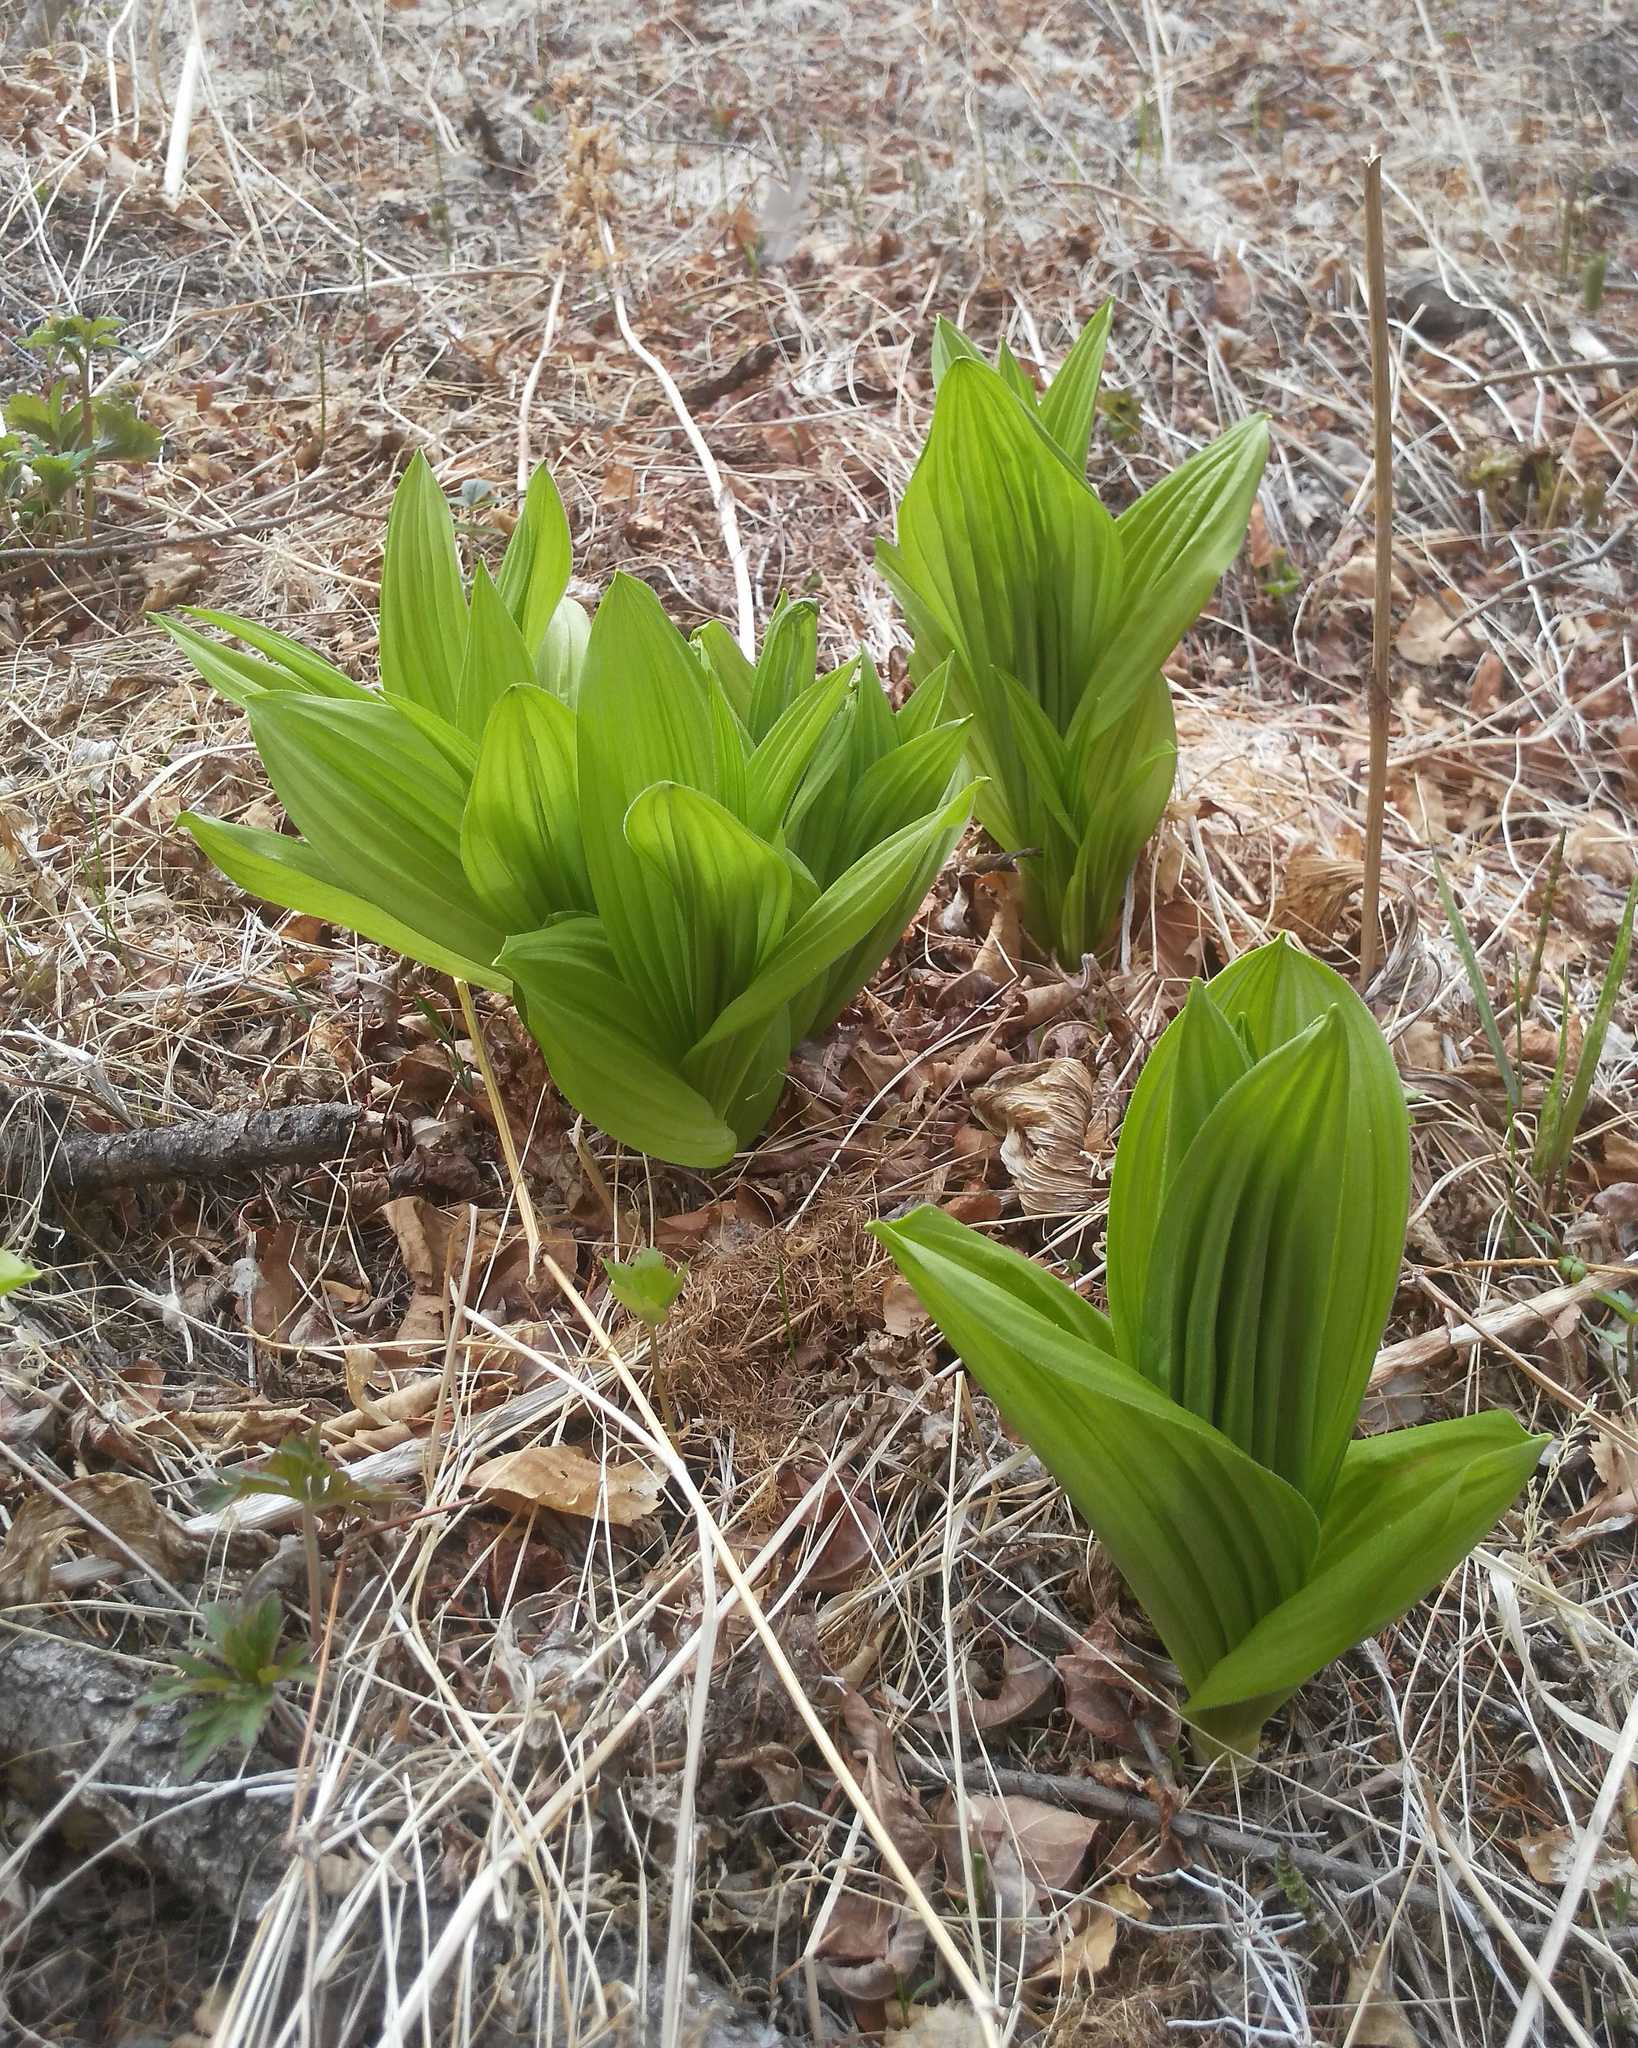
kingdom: Plantae
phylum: Tracheophyta
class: Liliopsida
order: Liliales
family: Melanthiaceae
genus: Veratrum
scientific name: Veratrum lobelianum
